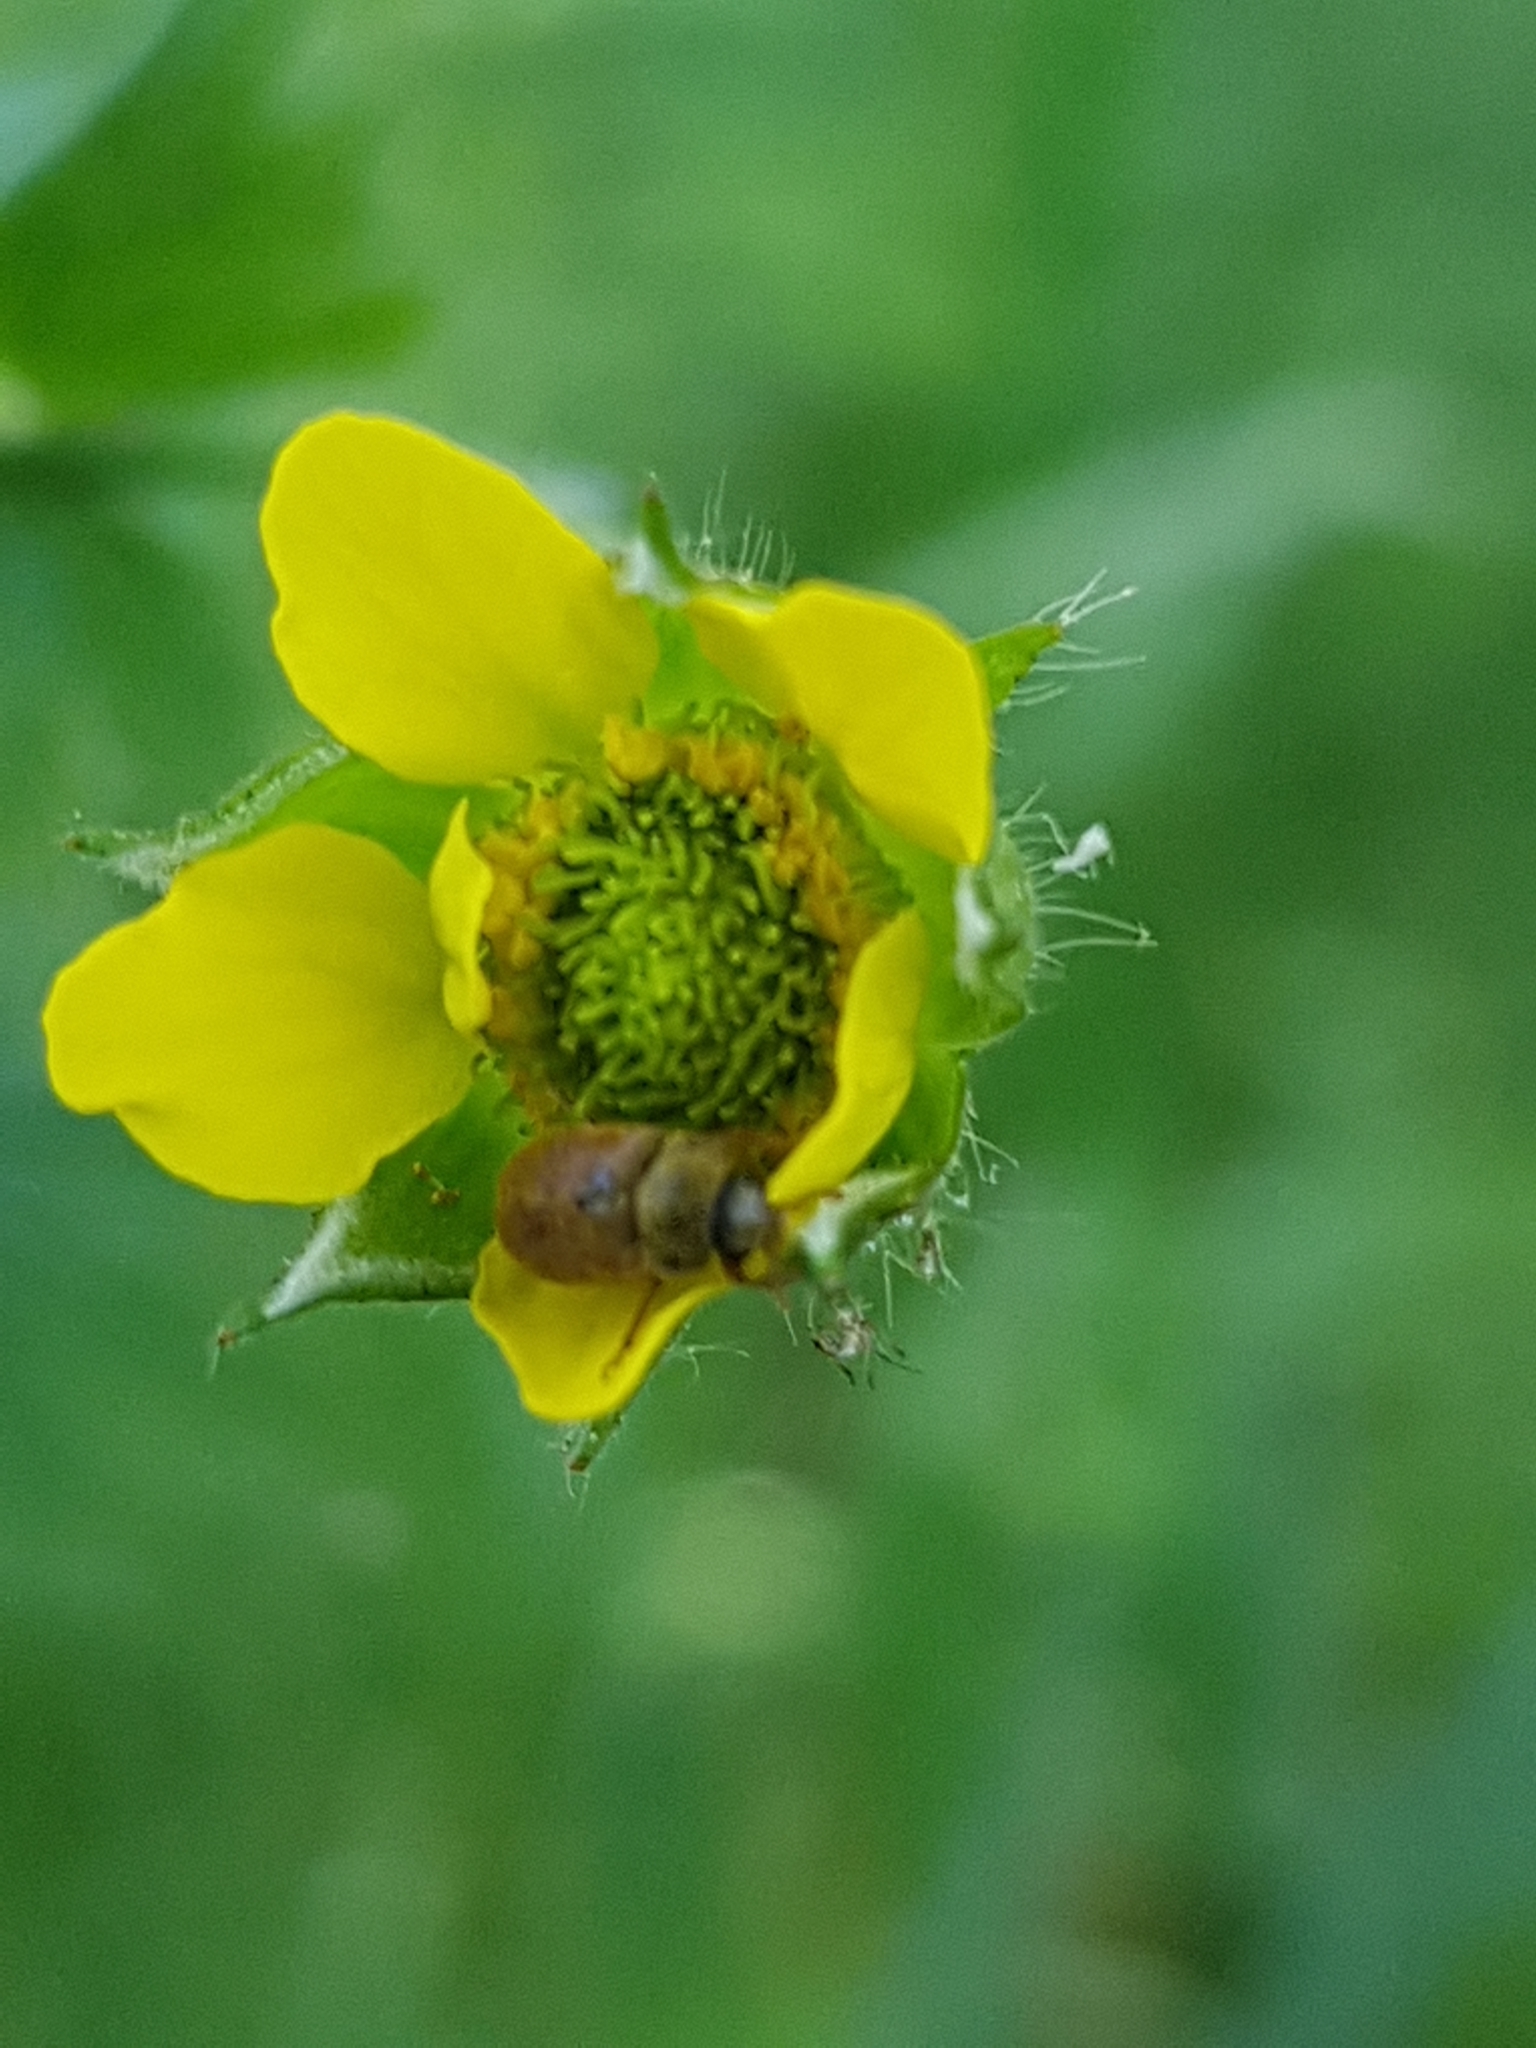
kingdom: Plantae
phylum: Tracheophyta
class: Magnoliopsida
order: Rosales
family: Rosaceae
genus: Geum
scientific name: Geum urbanum
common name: Wood avens
